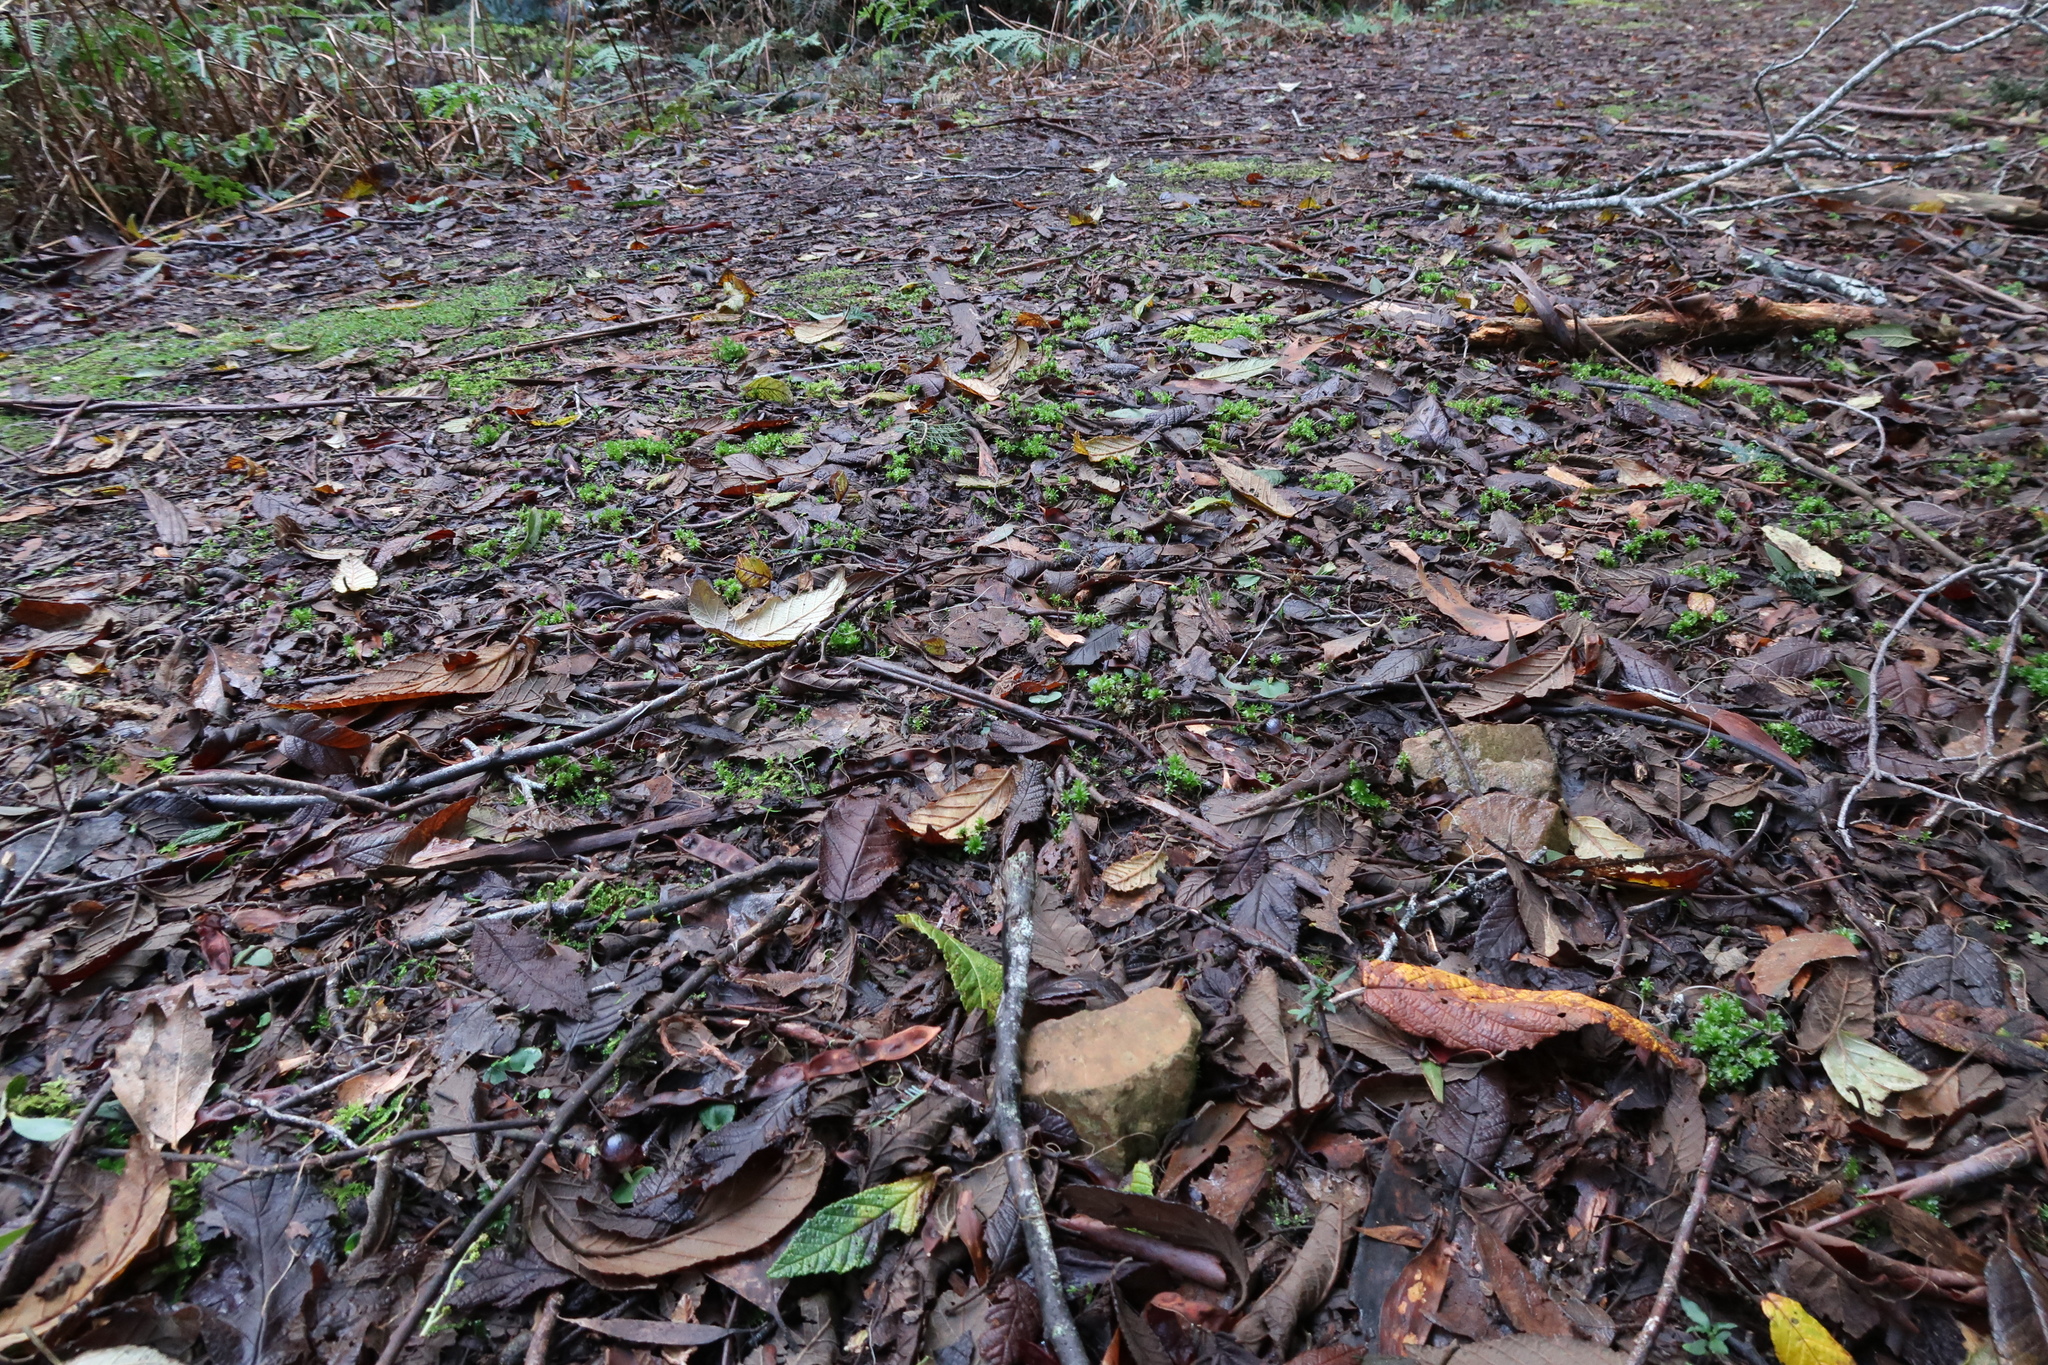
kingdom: Plantae
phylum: Tracheophyta
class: Liliopsida
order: Asparagales
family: Orchidaceae
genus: Corybas
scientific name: Corybas diemenicus
